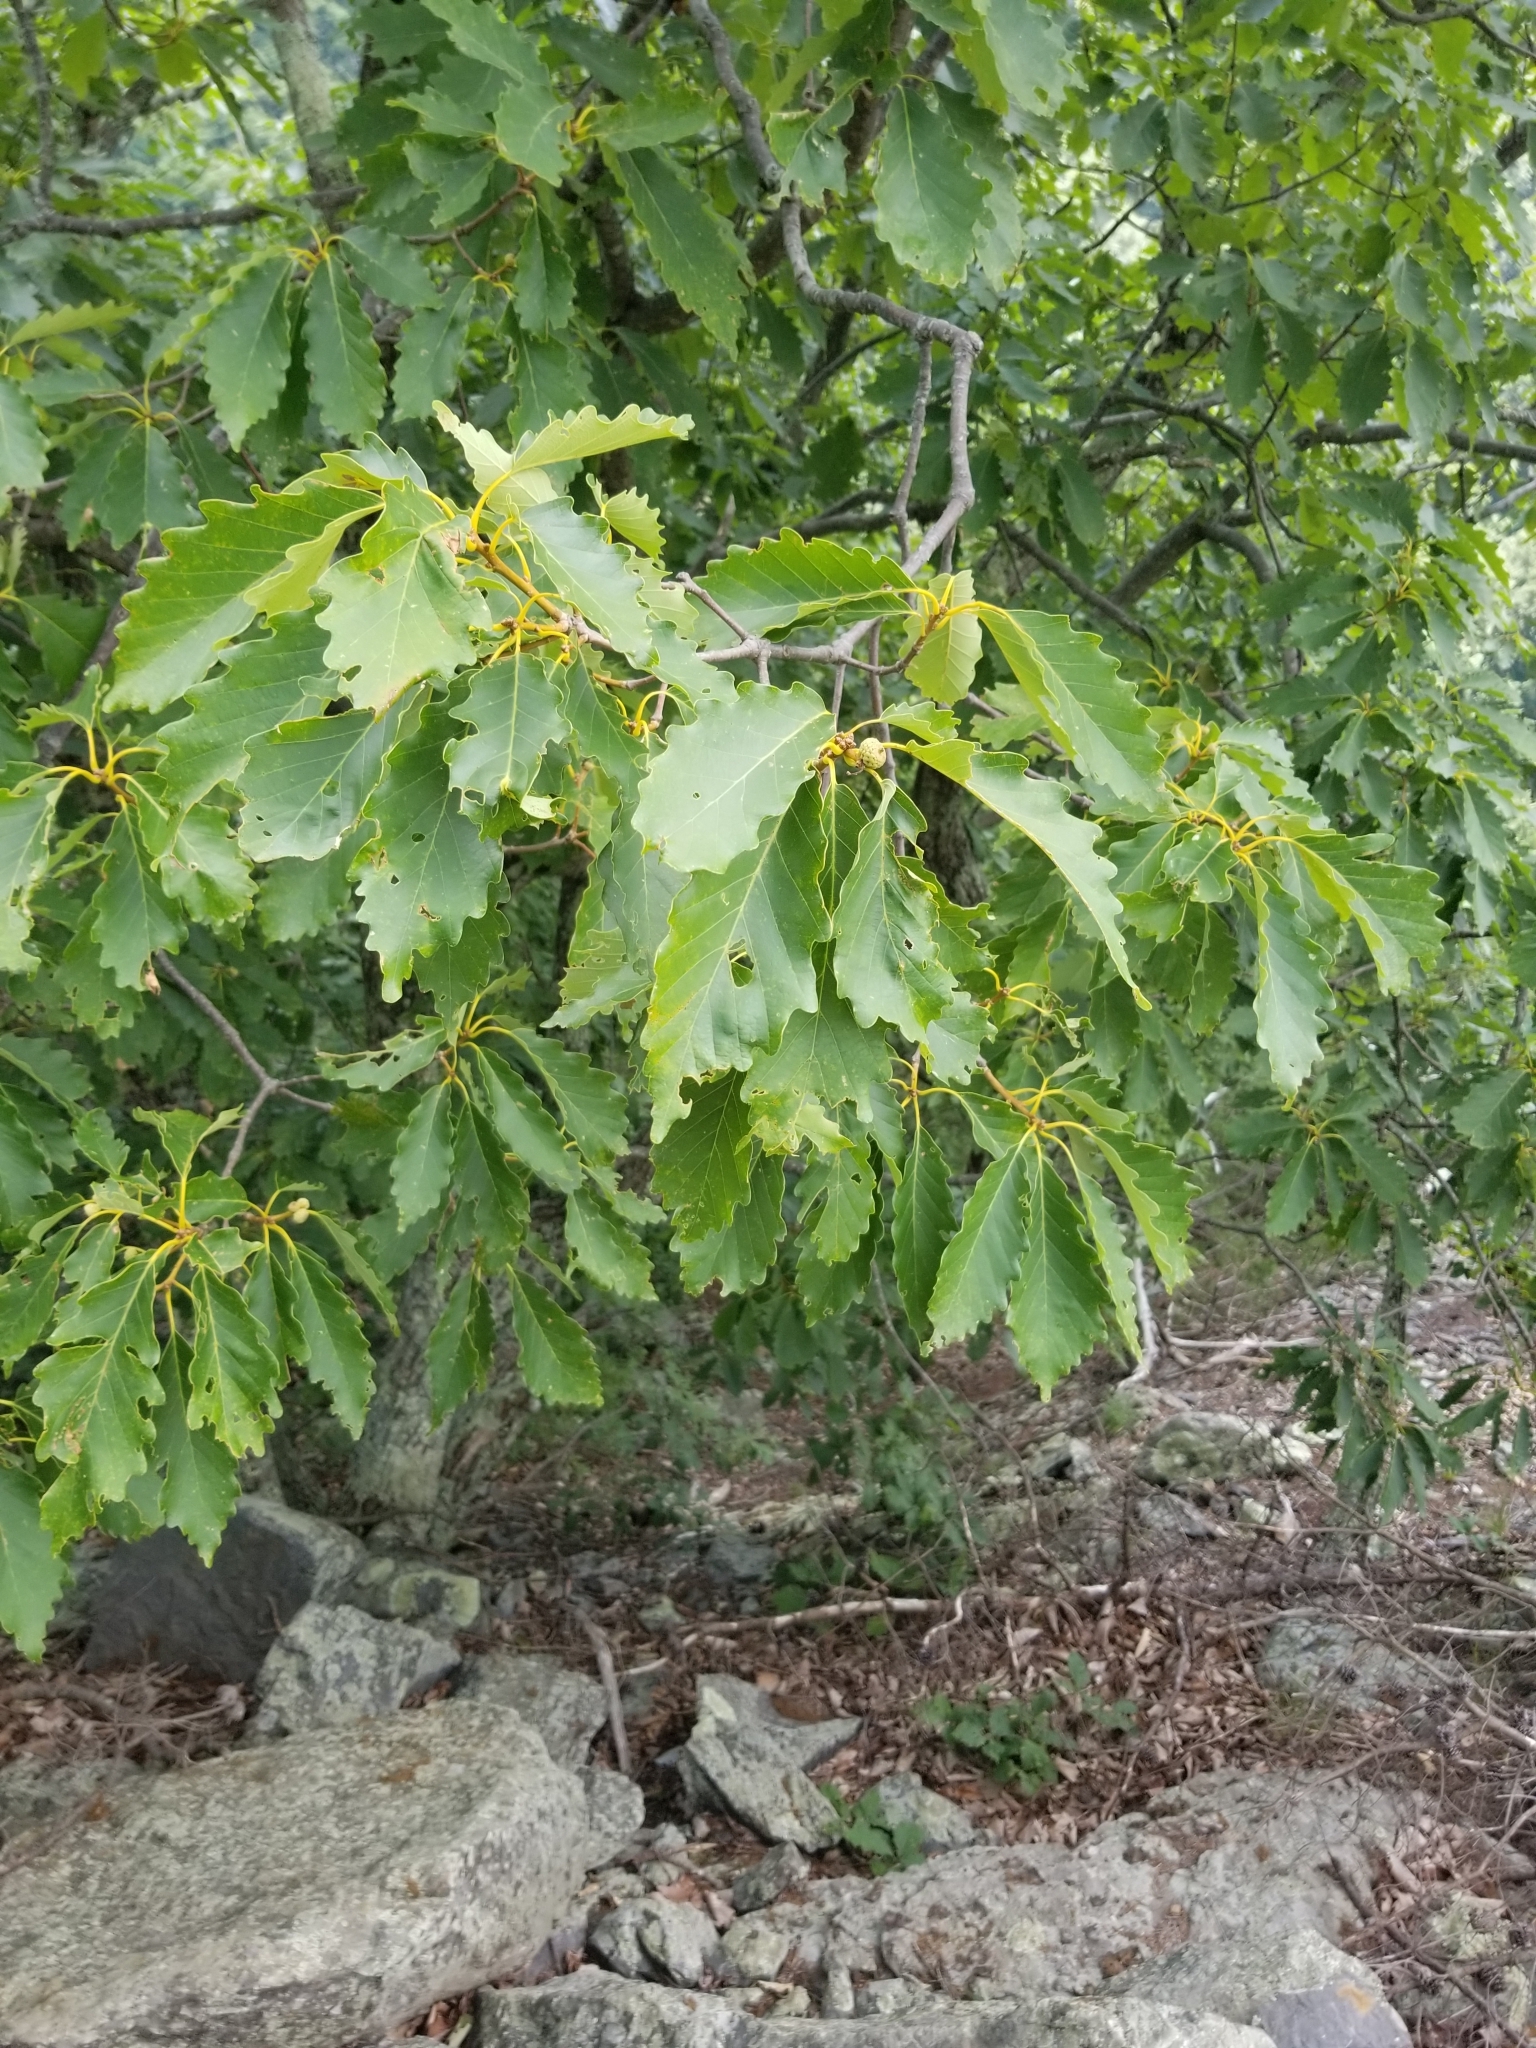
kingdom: Plantae
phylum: Tracheophyta
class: Magnoliopsida
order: Fagales
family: Fagaceae
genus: Quercus
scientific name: Quercus montana
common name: Chestnut oak
